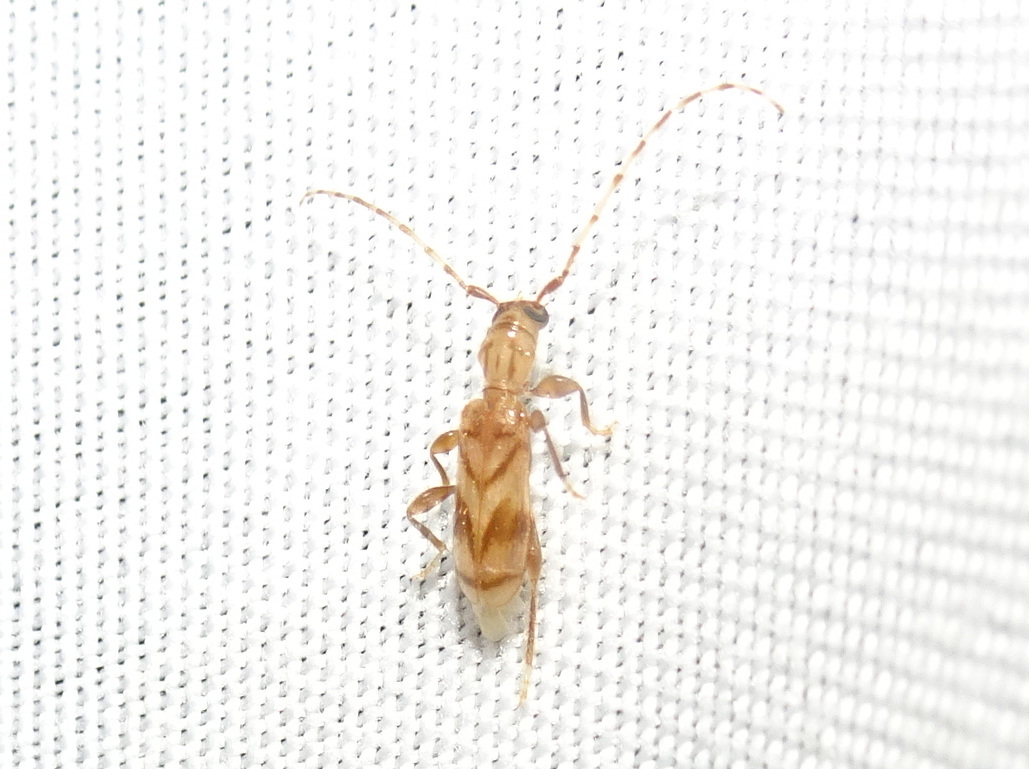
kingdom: Animalia
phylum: Arthropoda
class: Insecta
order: Coleoptera
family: Cerambycidae
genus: Obrium
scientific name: Obrium maculatum
